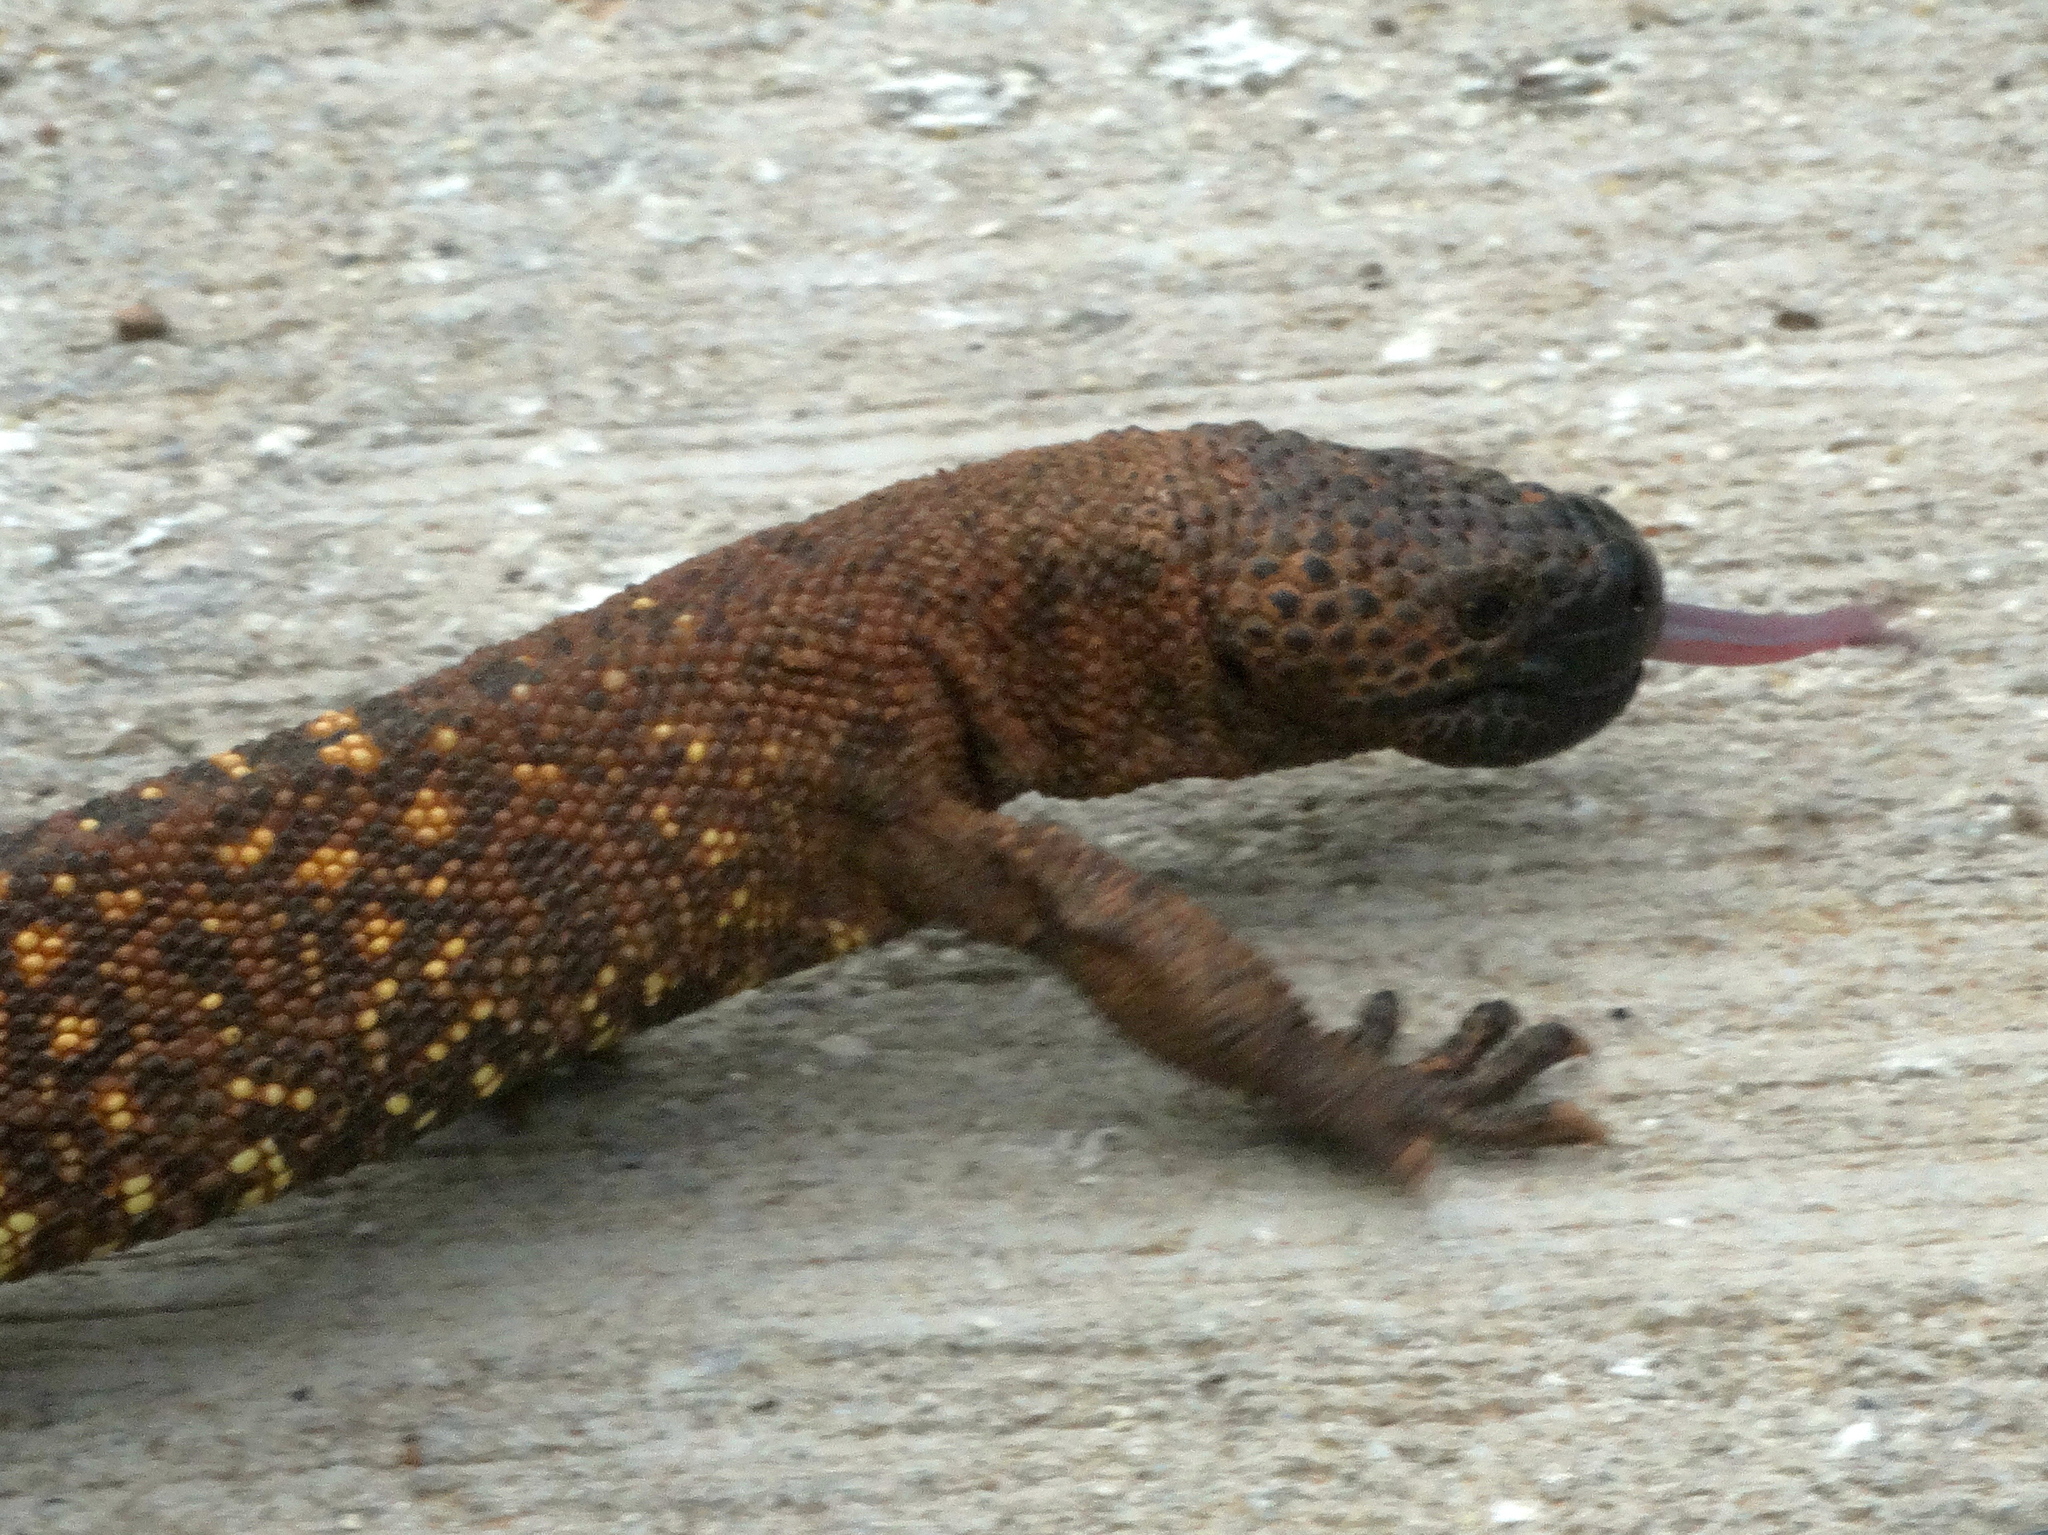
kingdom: Animalia
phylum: Chordata
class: Squamata
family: Helodermatidae
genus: Heloderma
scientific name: Heloderma horridum
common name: Mexican beaded lizard
